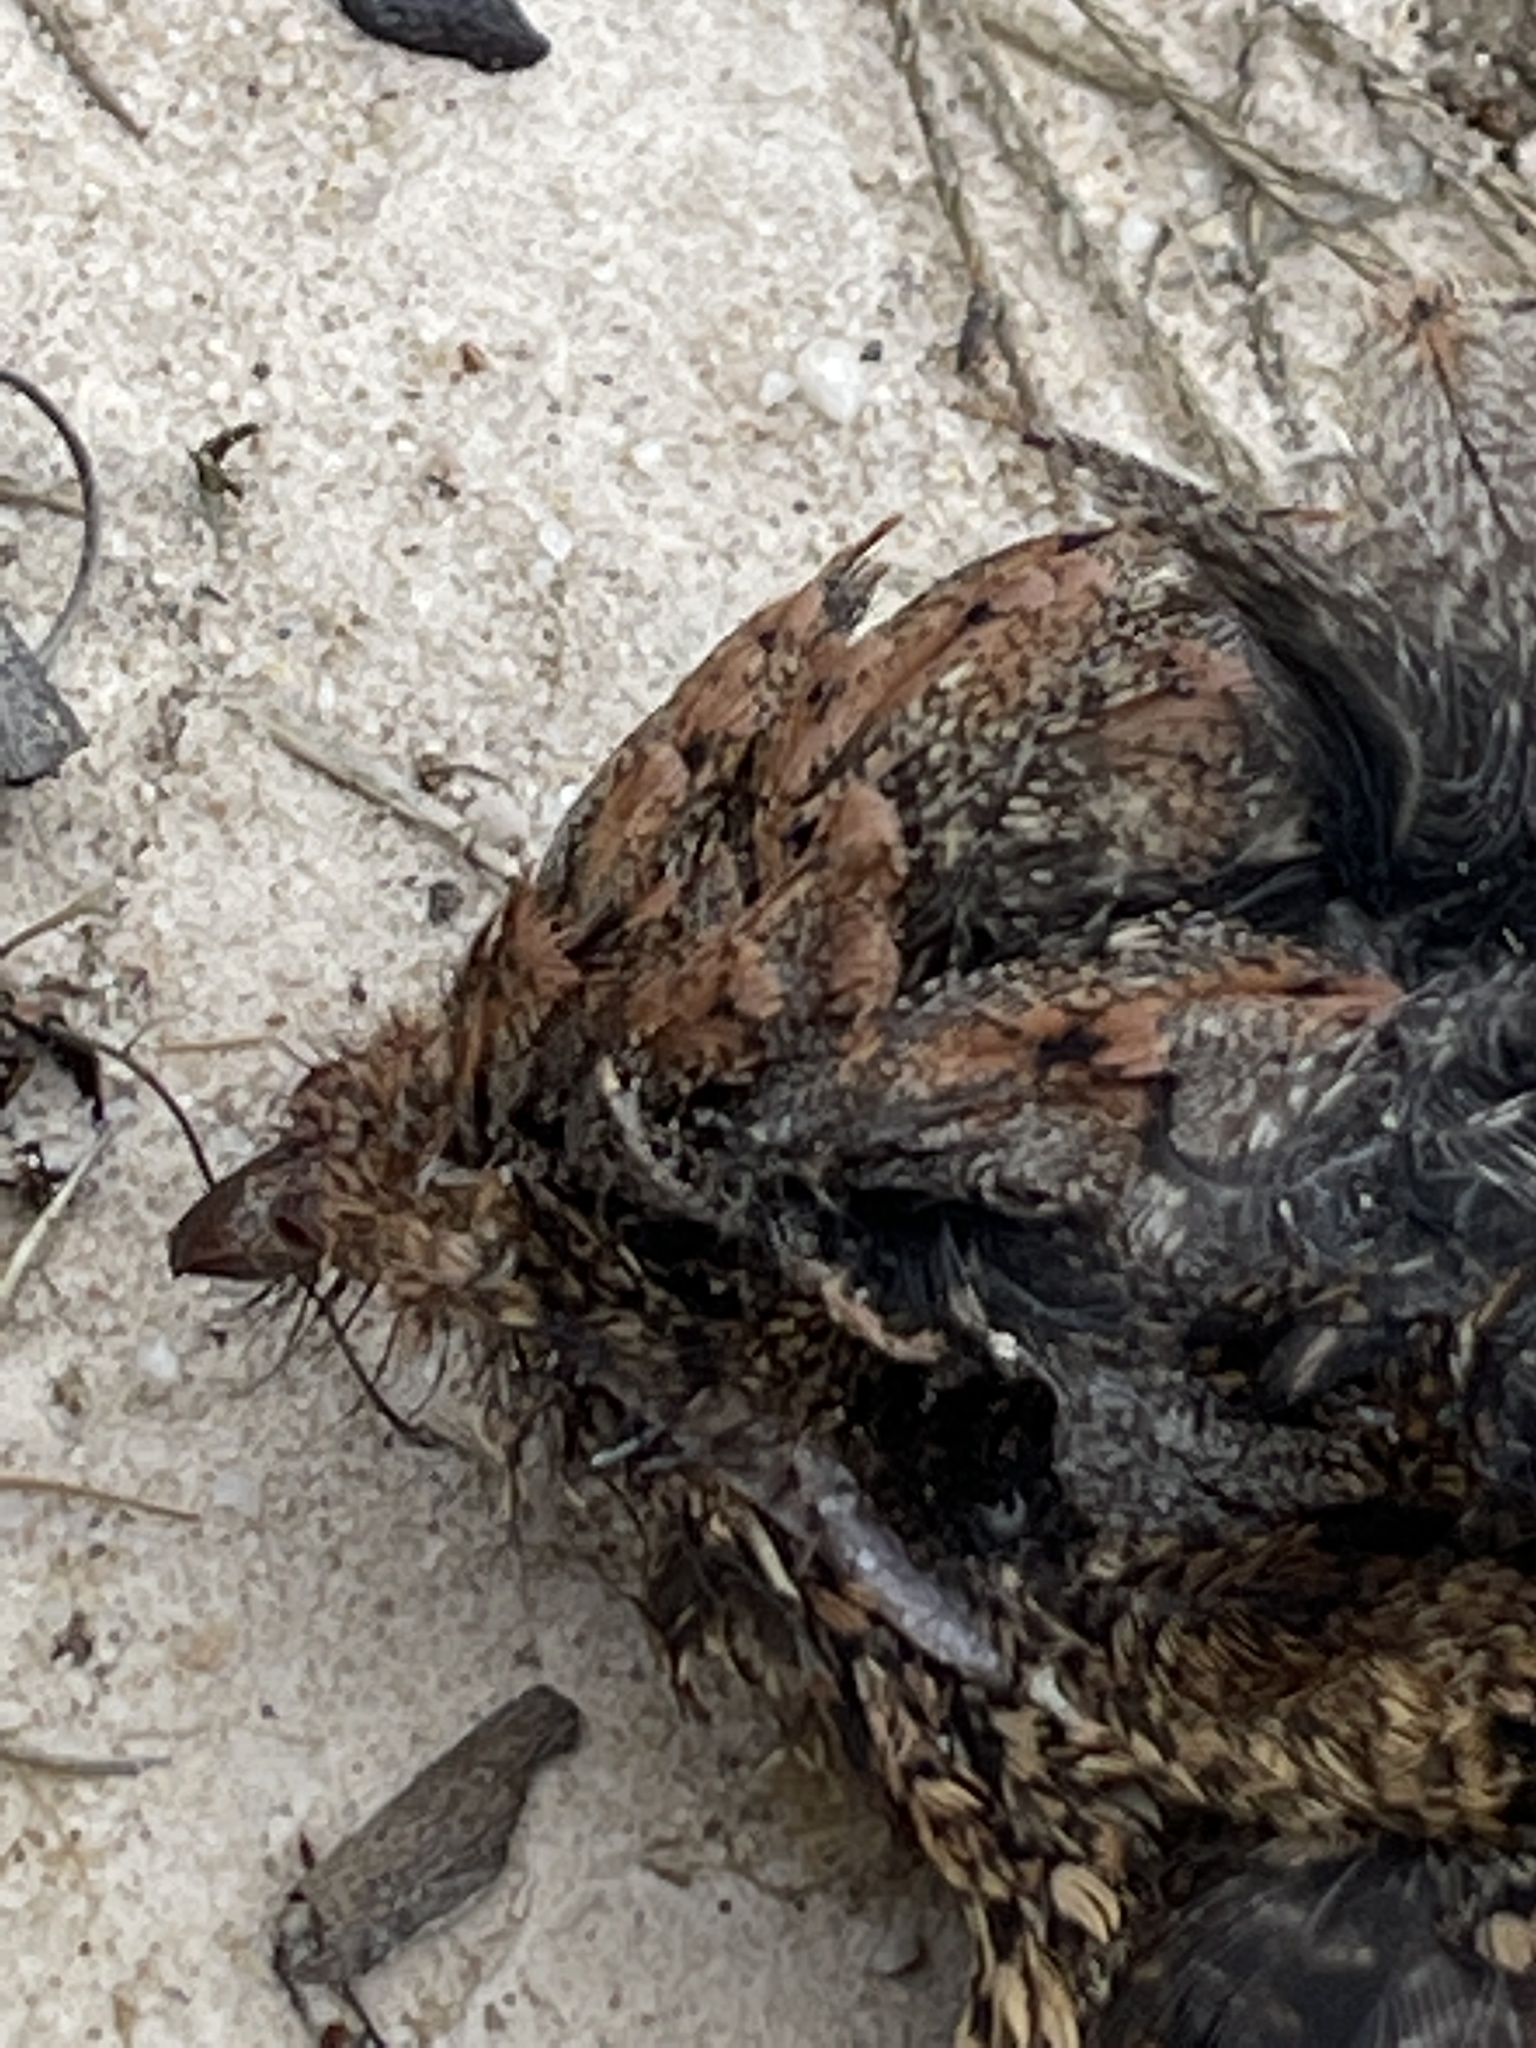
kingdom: Animalia
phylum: Chordata
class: Aves
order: Caprimulgiformes
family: Caprimulgidae
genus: Eurostopodus
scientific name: Eurostopodus mystacalis
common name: White-throated nightjar
